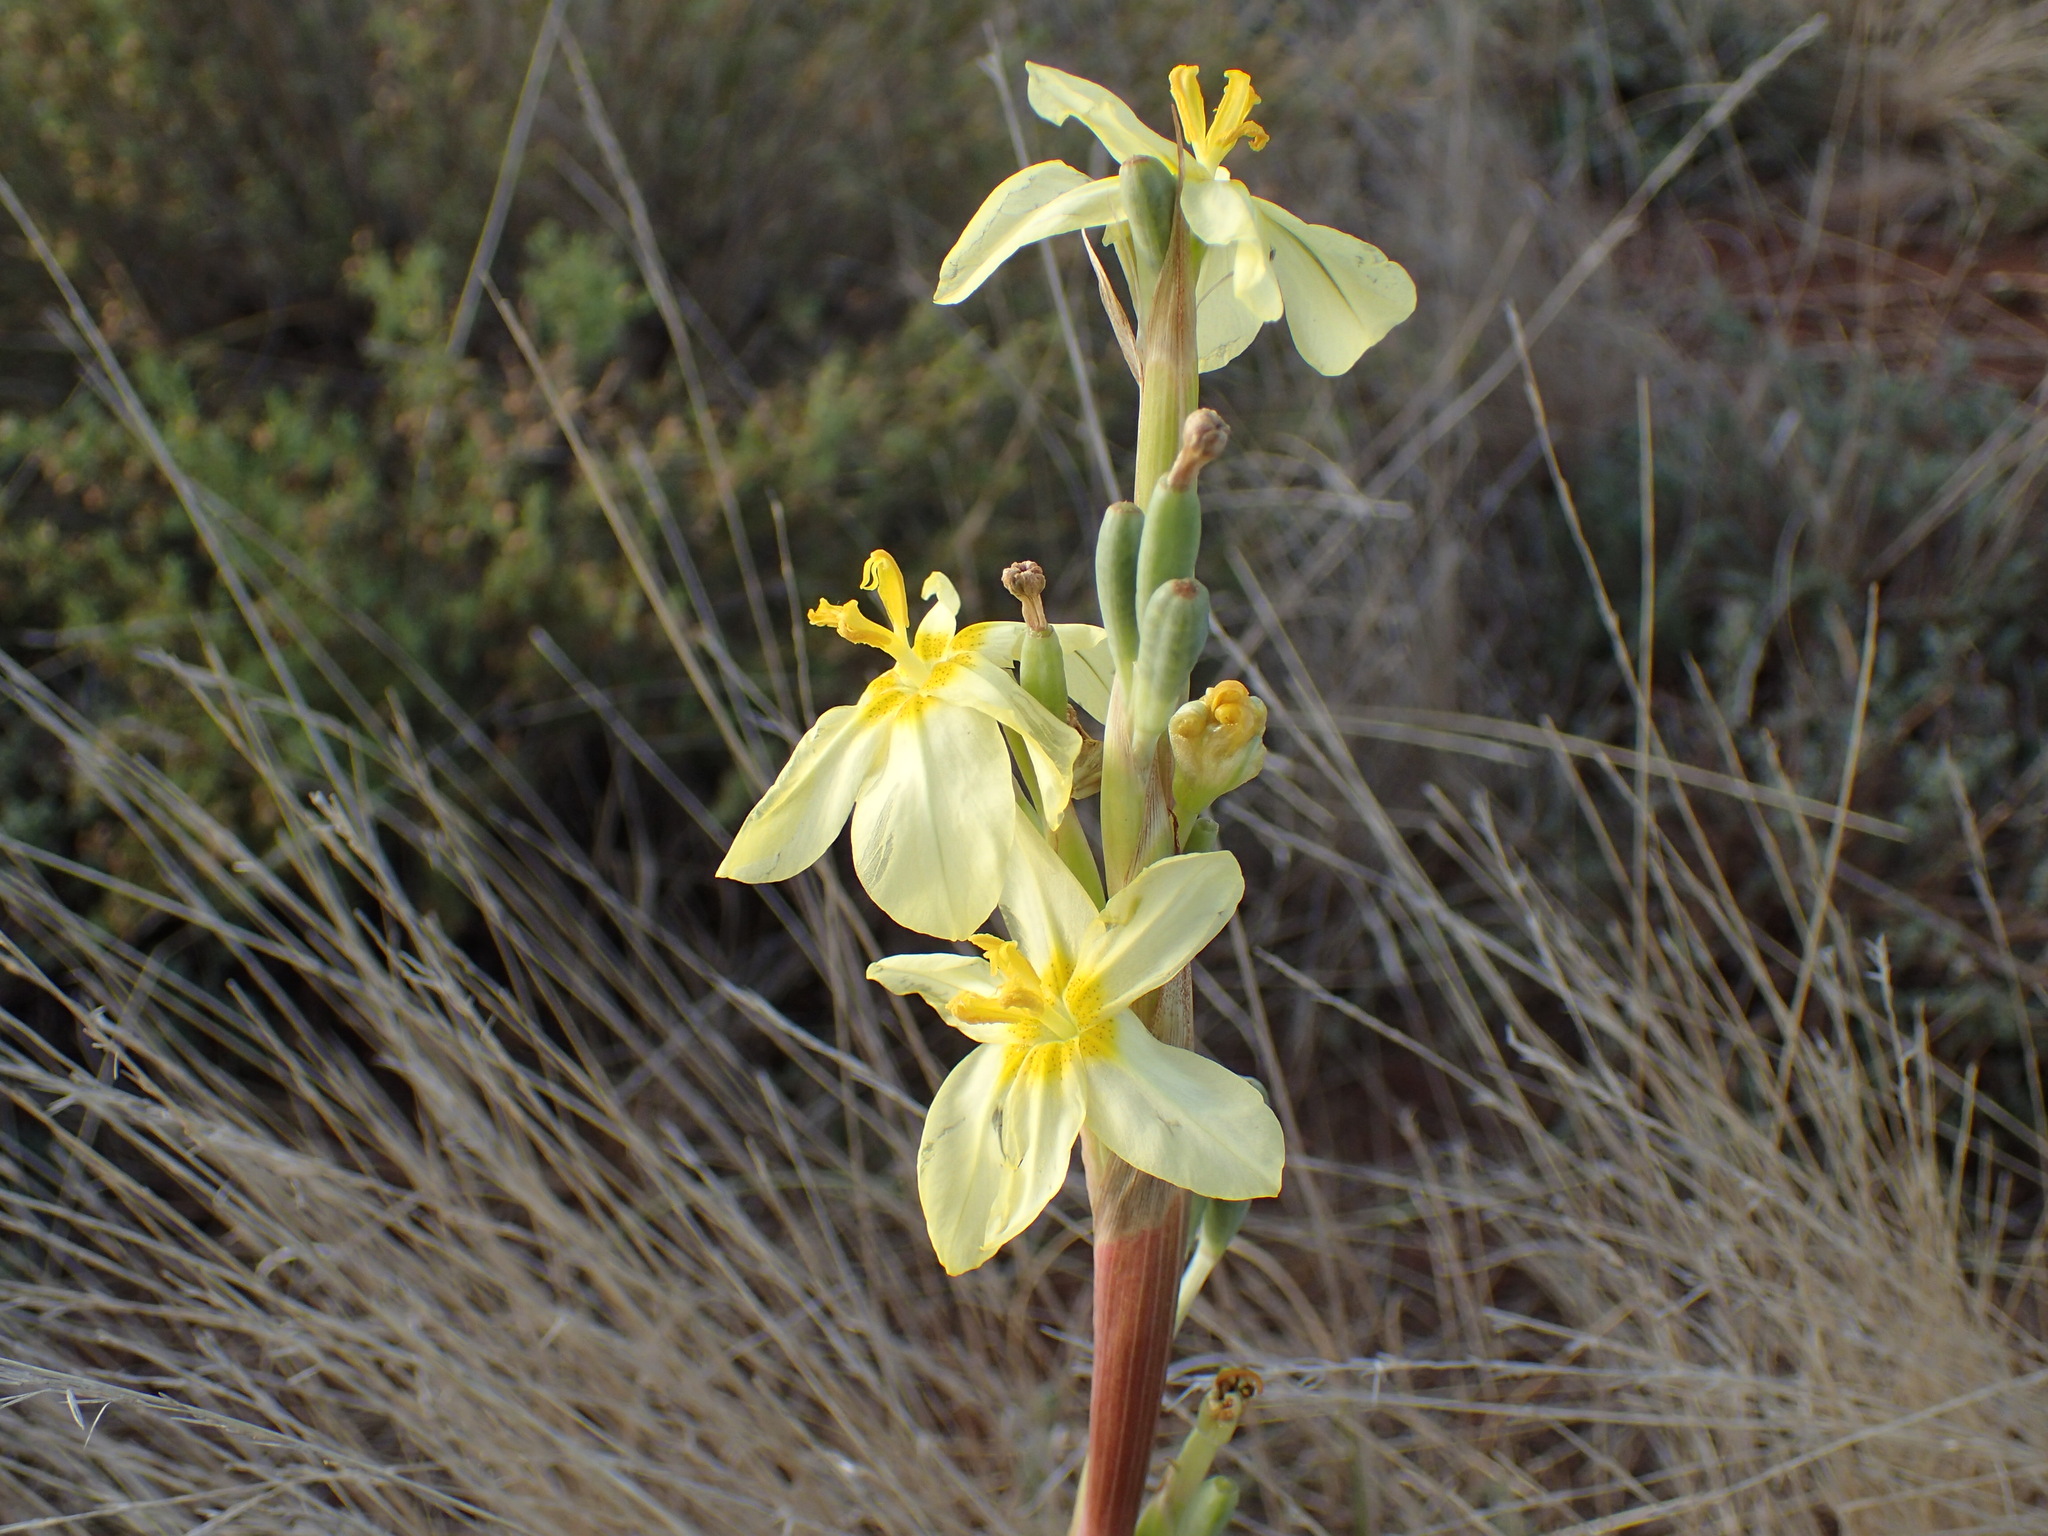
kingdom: Plantae
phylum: Tracheophyta
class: Liliopsida
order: Asparagales
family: Iridaceae
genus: Moraea
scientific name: Moraea pallida
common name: Yellow tulp
